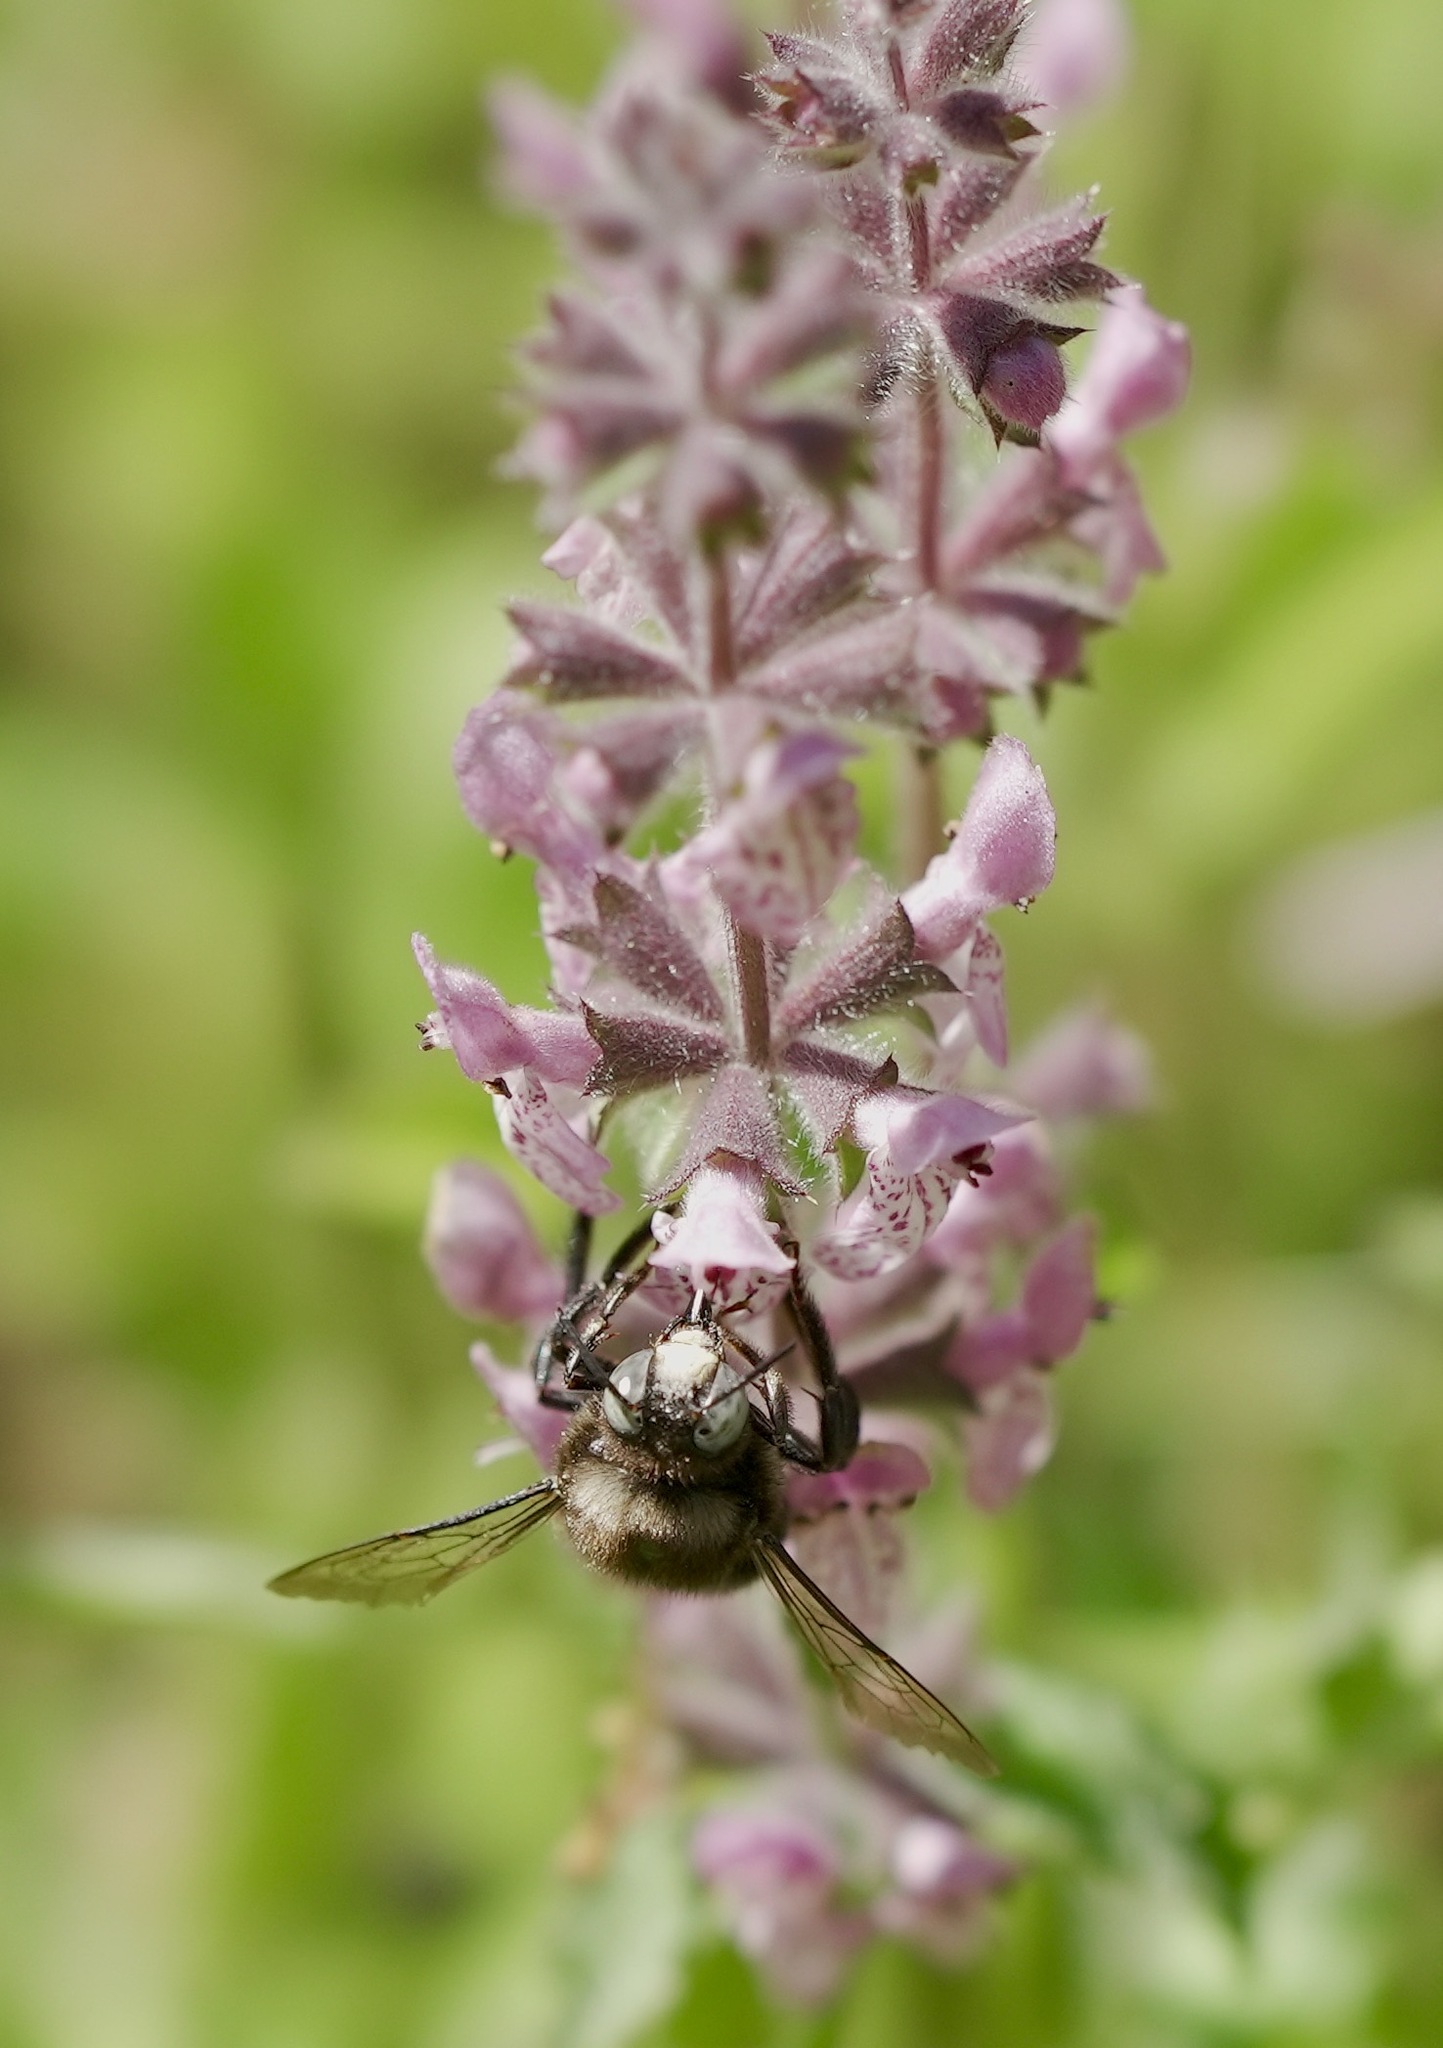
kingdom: Animalia
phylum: Arthropoda
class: Insecta
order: Hymenoptera
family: Apidae
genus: Xylocopa
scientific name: Xylocopa tabaniformis
